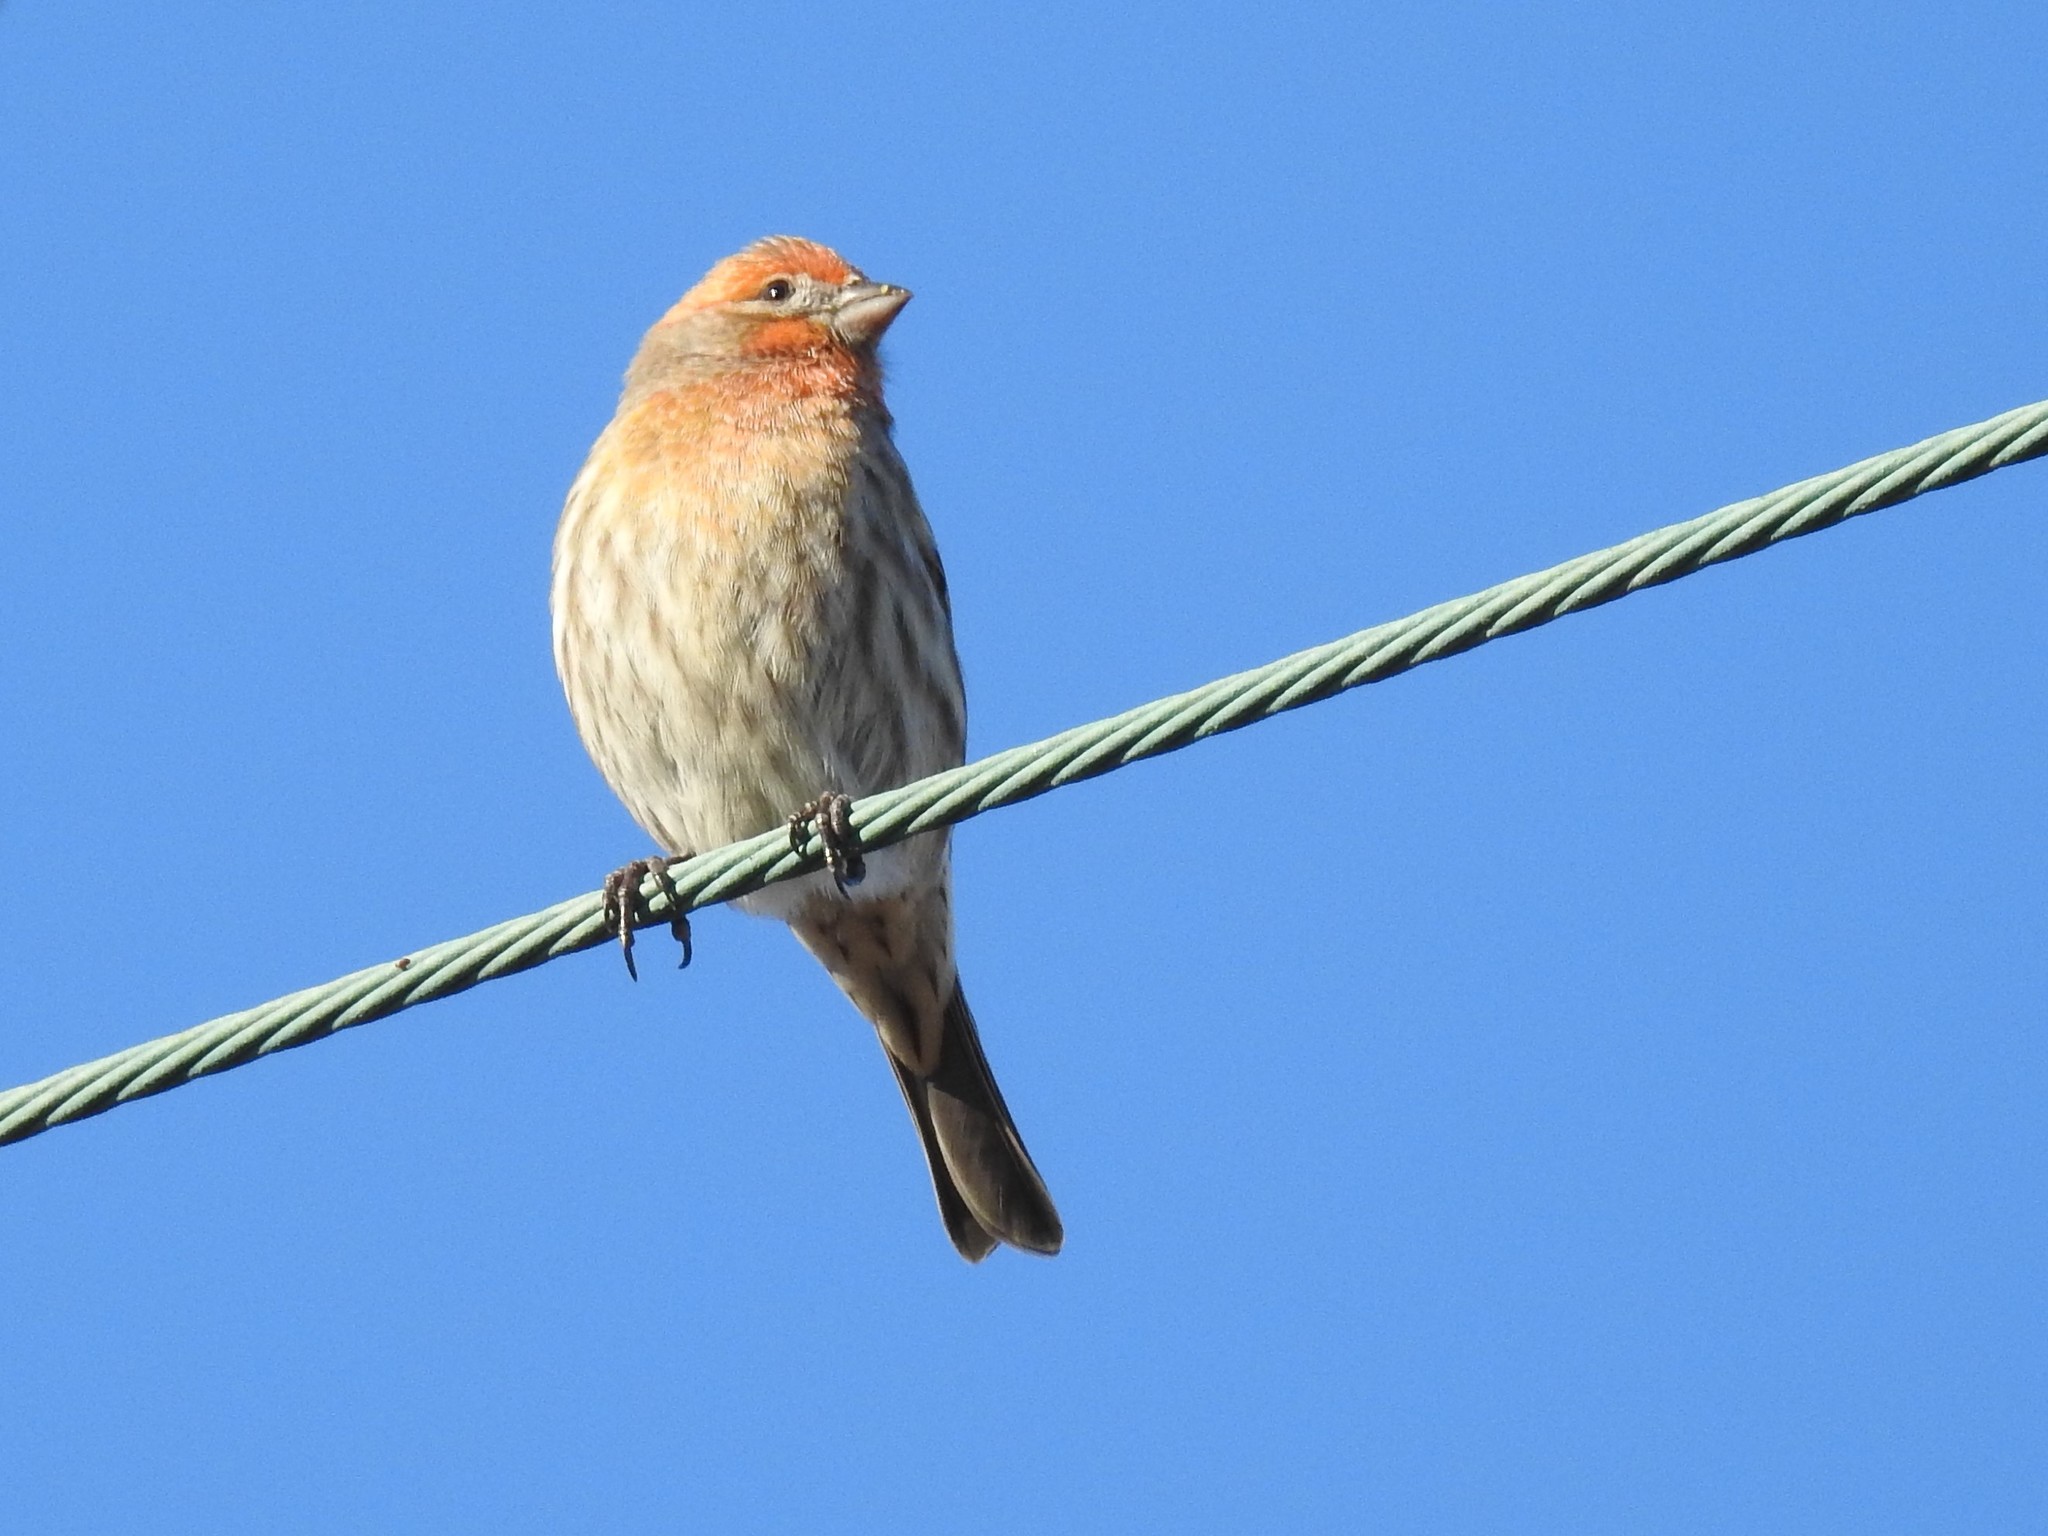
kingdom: Animalia
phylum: Chordata
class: Aves
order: Passeriformes
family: Fringillidae
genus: Haemorhous
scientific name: Haemorhous mexicanus
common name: House finch
